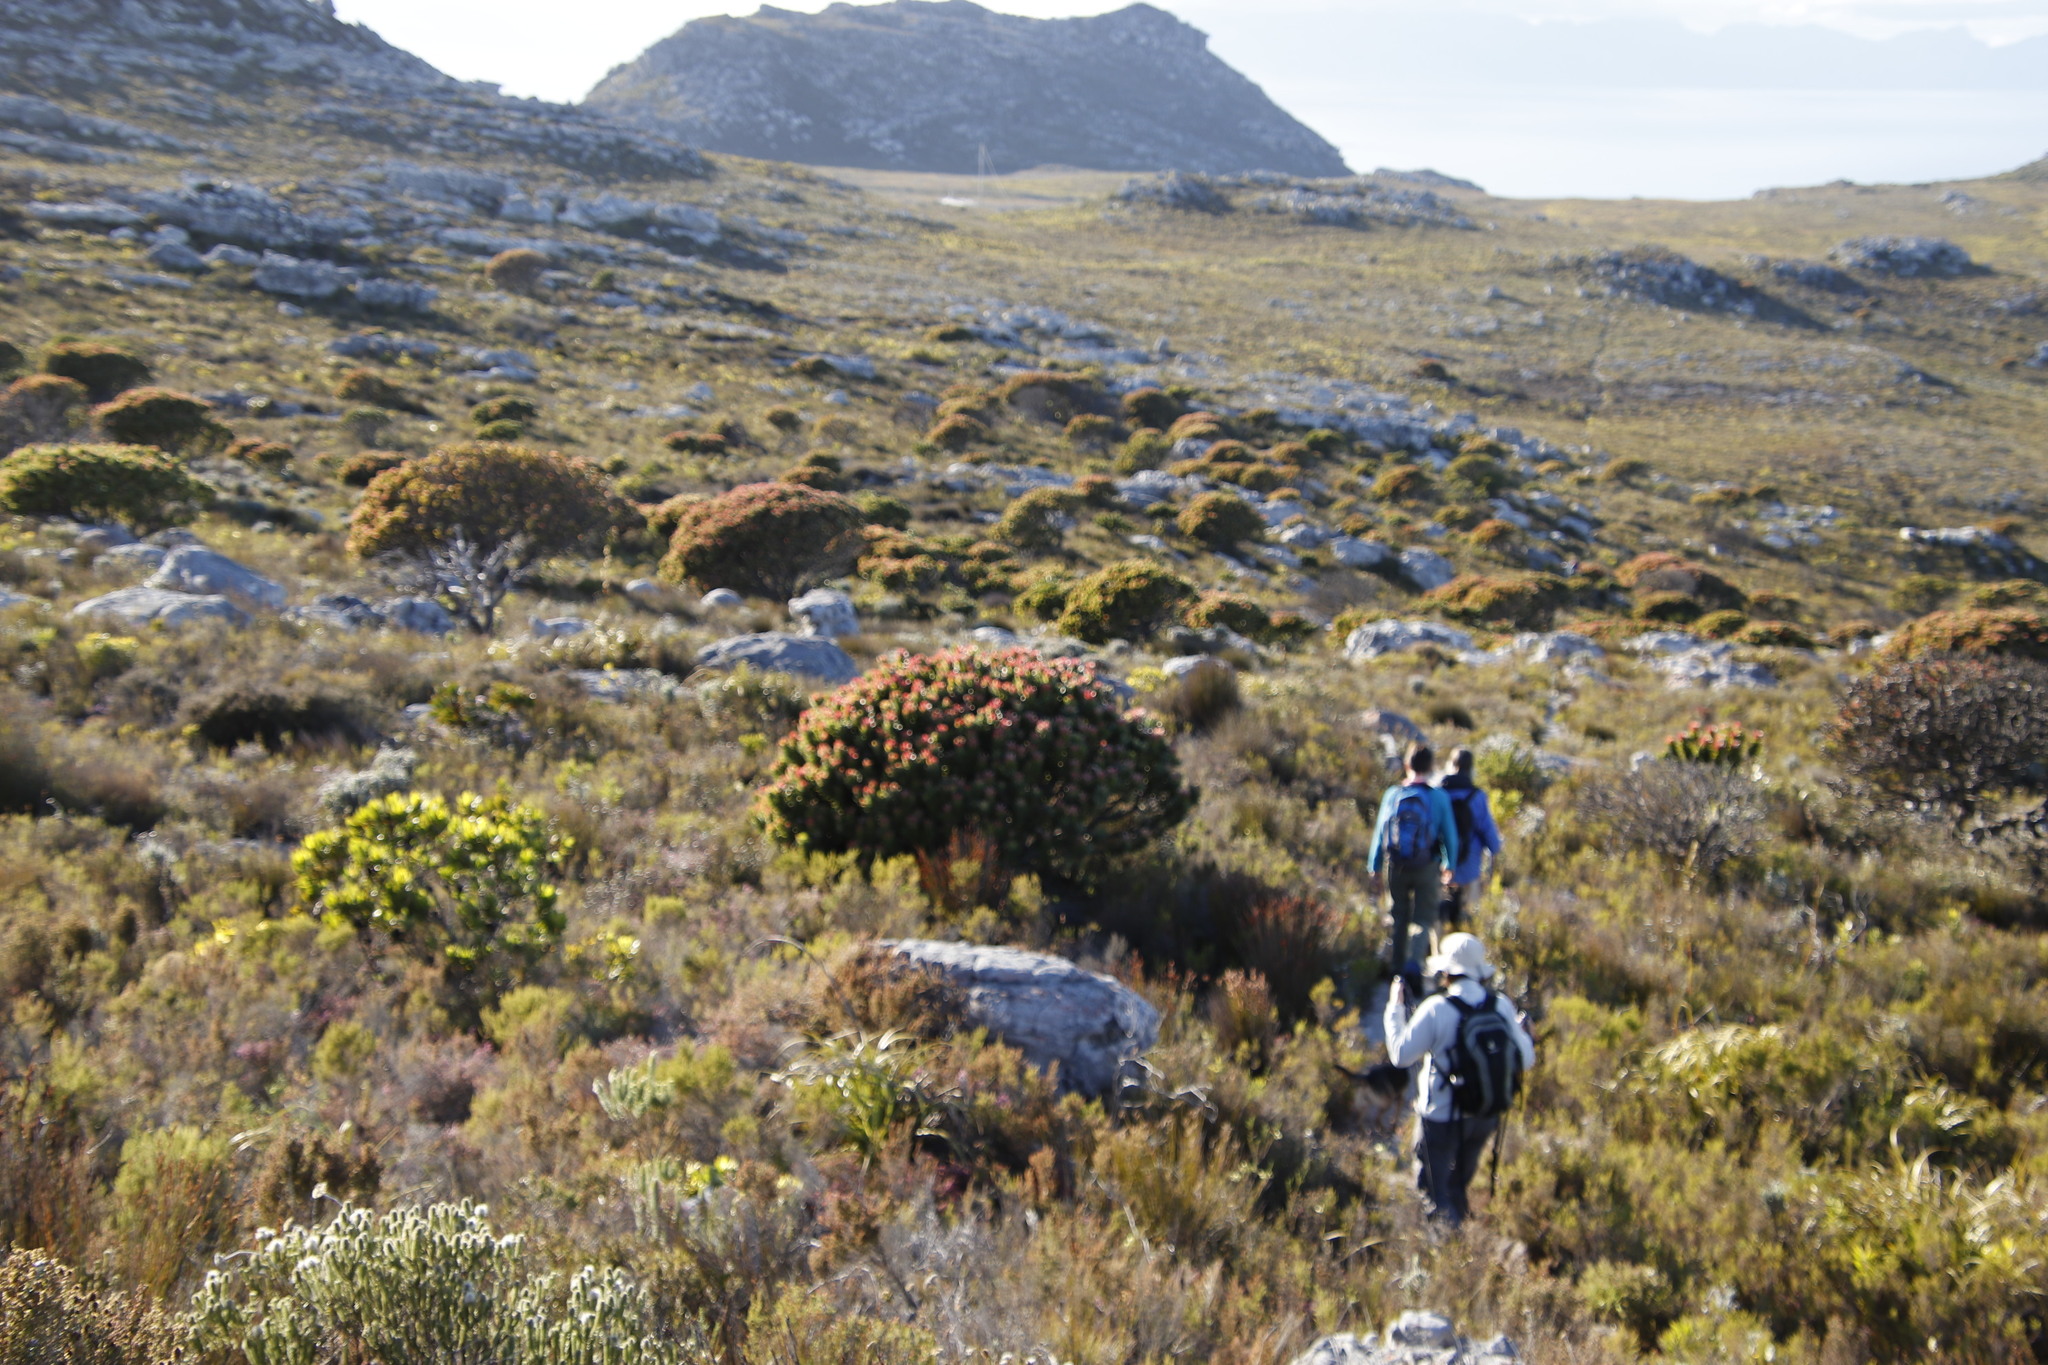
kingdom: Plantae
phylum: Tracheophyta
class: Magnoliopsida
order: Proteales
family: Proteaceae
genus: Mimetes
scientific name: Mimetes fimbriifolius
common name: Fringed bottlebrush
